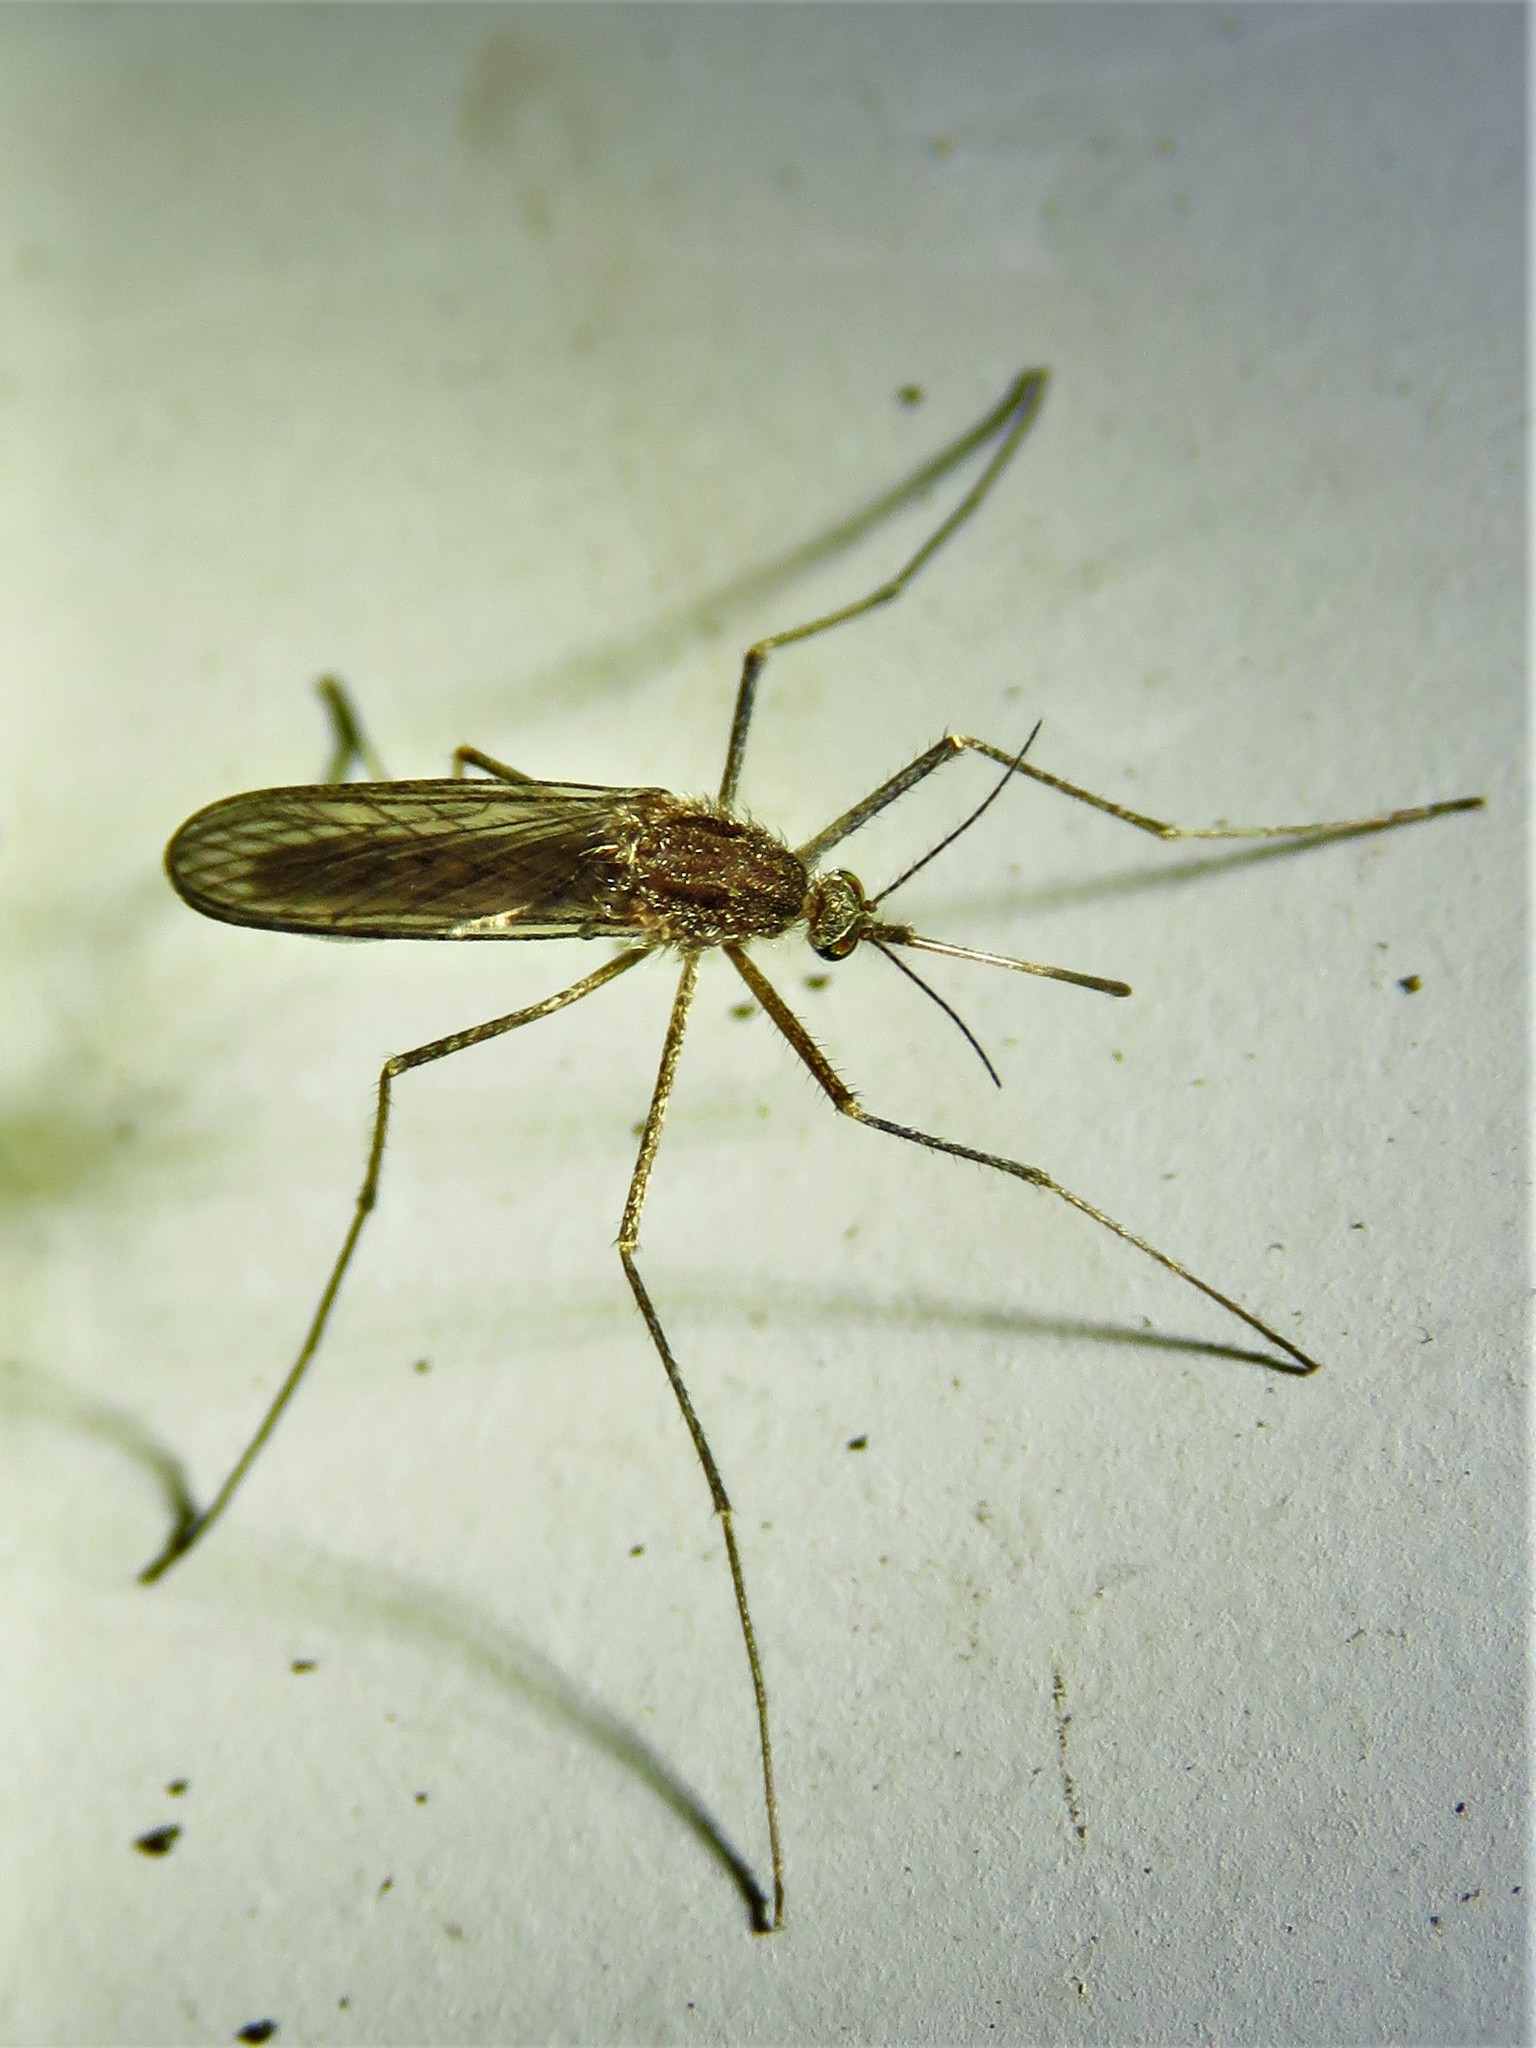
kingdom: Animalia
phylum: Arthropoda
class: Insecta
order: Diptera
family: Culicidae
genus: Culiseta
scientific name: Culiseta inornata
